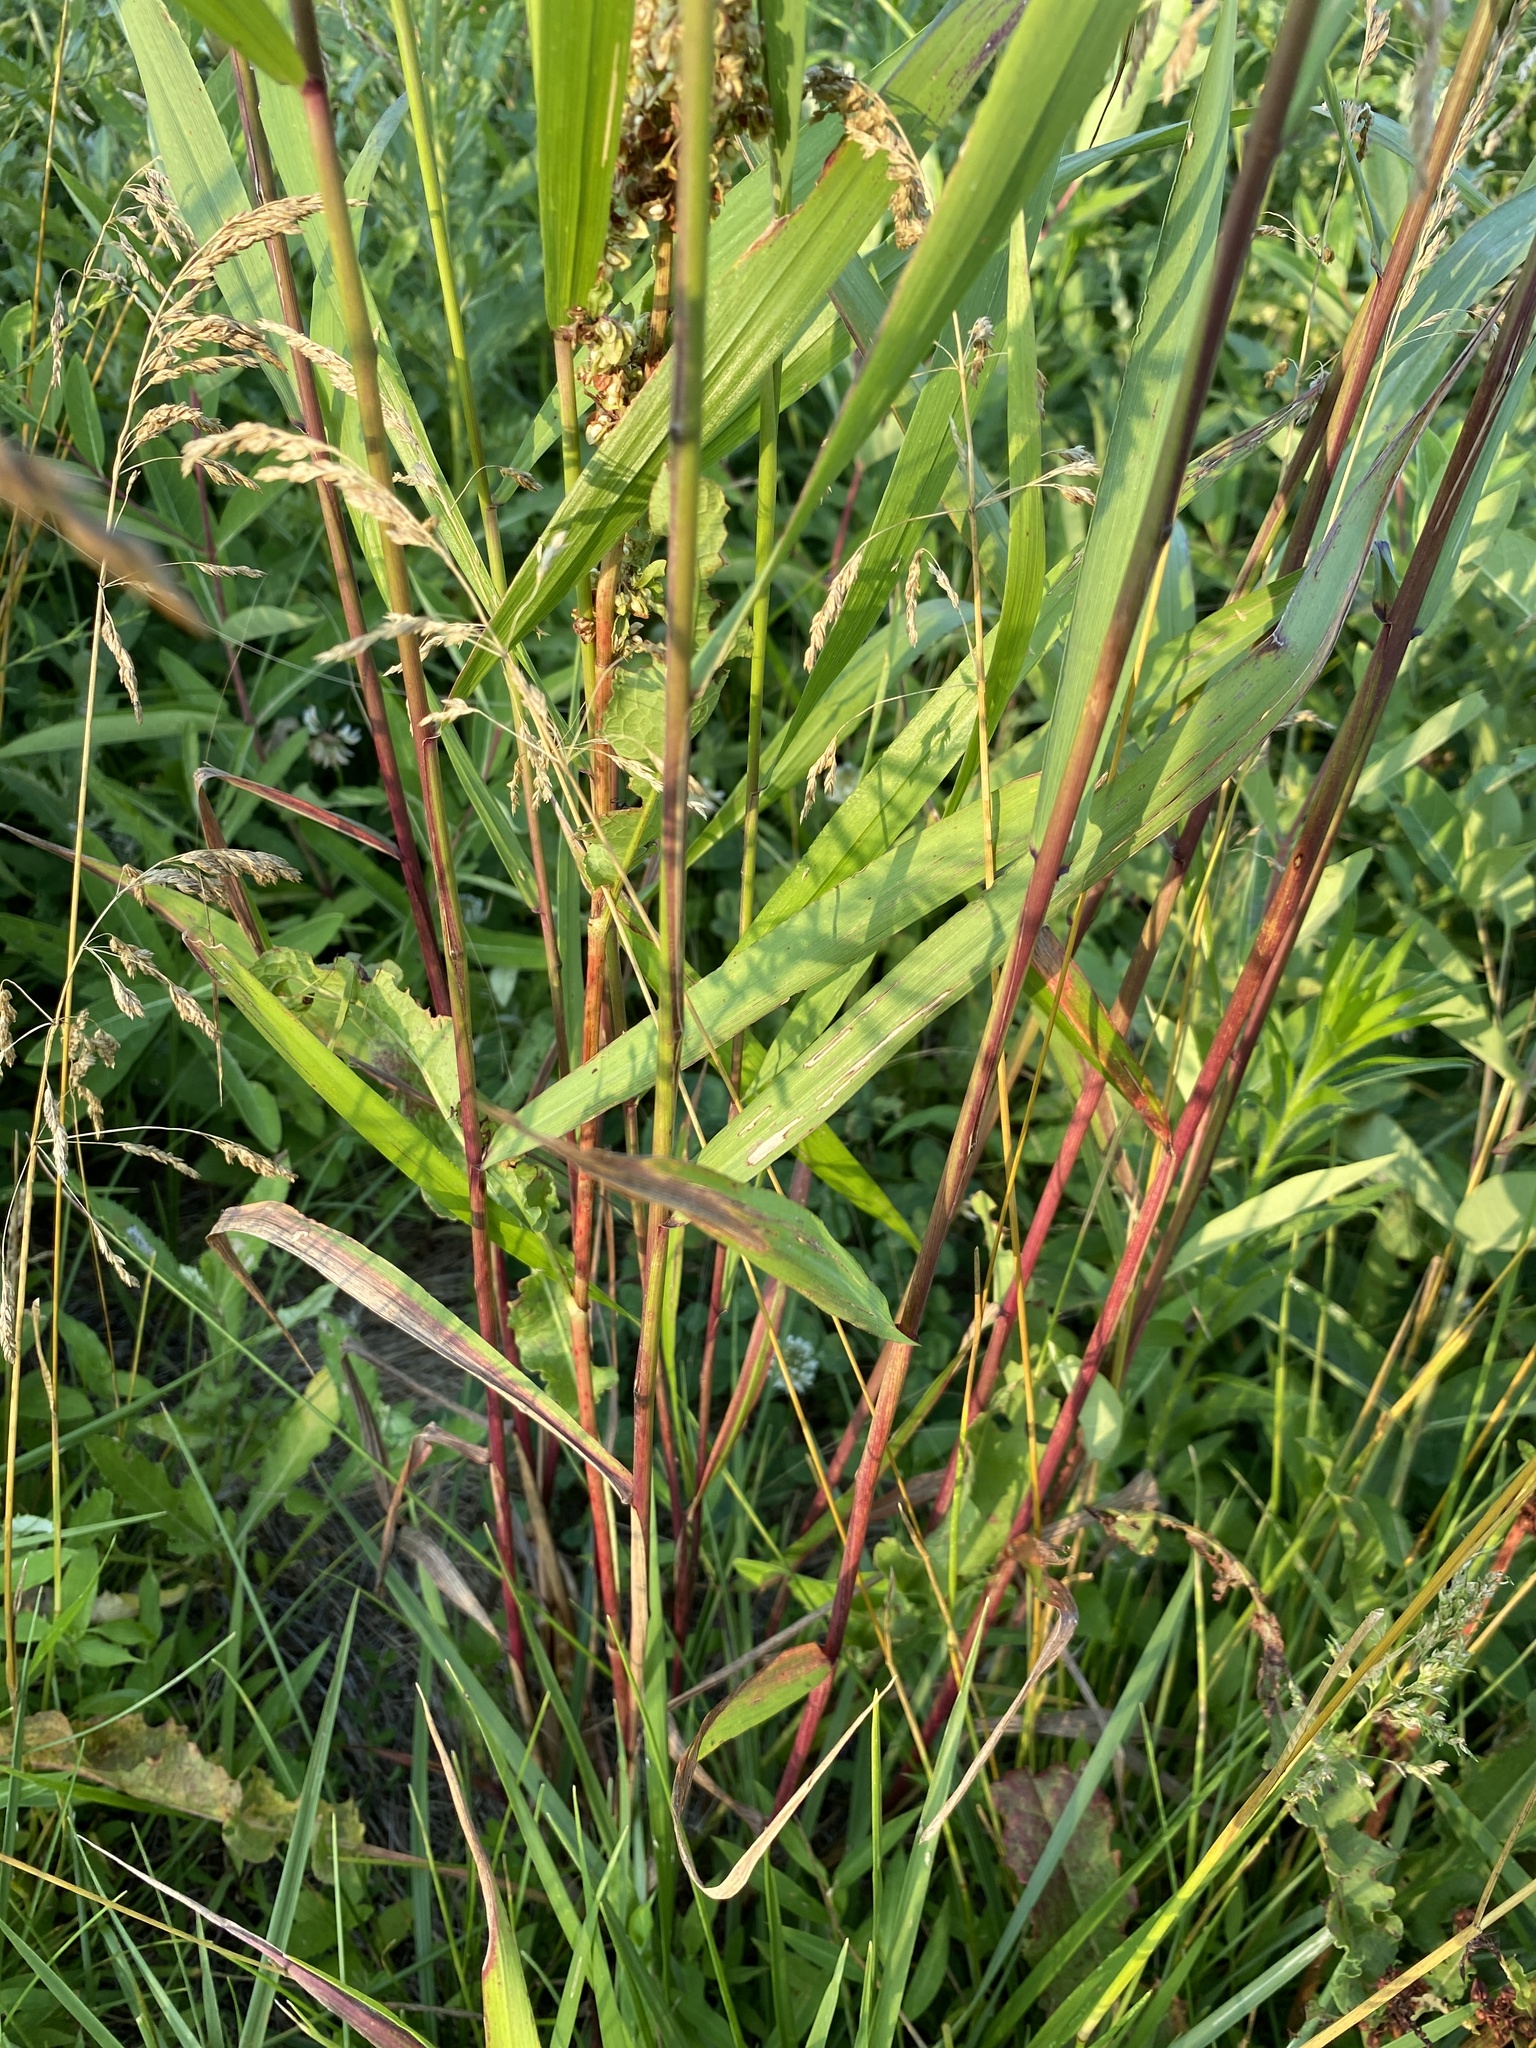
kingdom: Plantae
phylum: Tracheophyta
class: Liliopsida
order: Poales
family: Poaceae
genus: Elymus
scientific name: Elymus virginicus
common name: Common eastern wildrye
